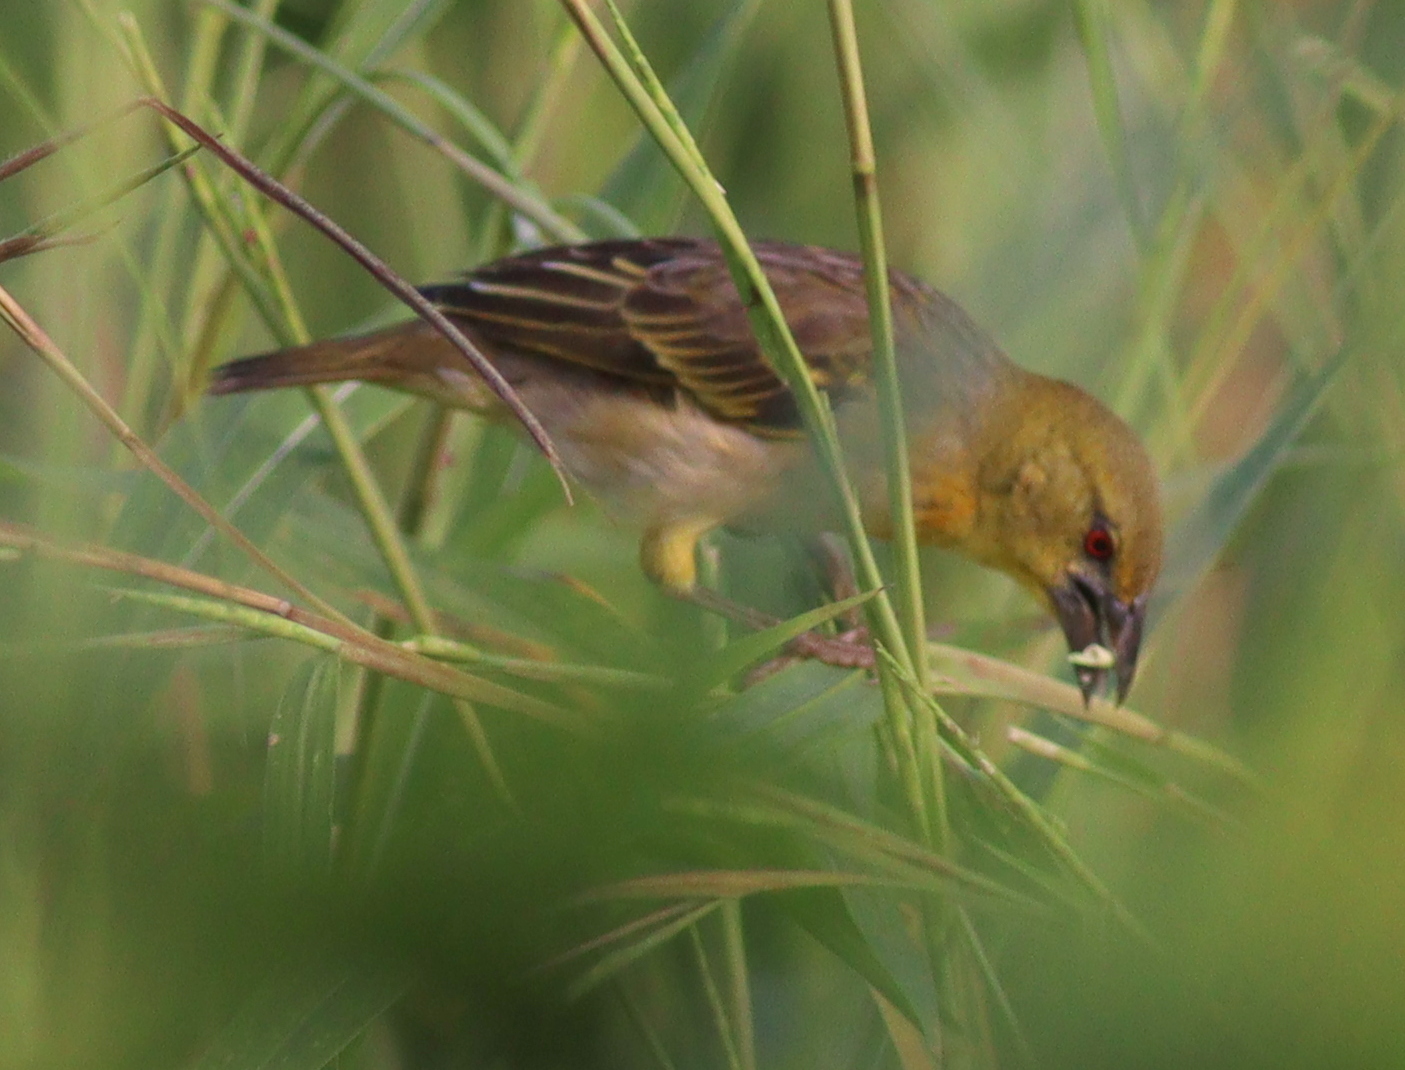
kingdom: Animalia
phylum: Chordata
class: Aves
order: Passeriformes
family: Ploceidae
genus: Ploceus
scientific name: Ploceus cucullatus
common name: Village weaver
